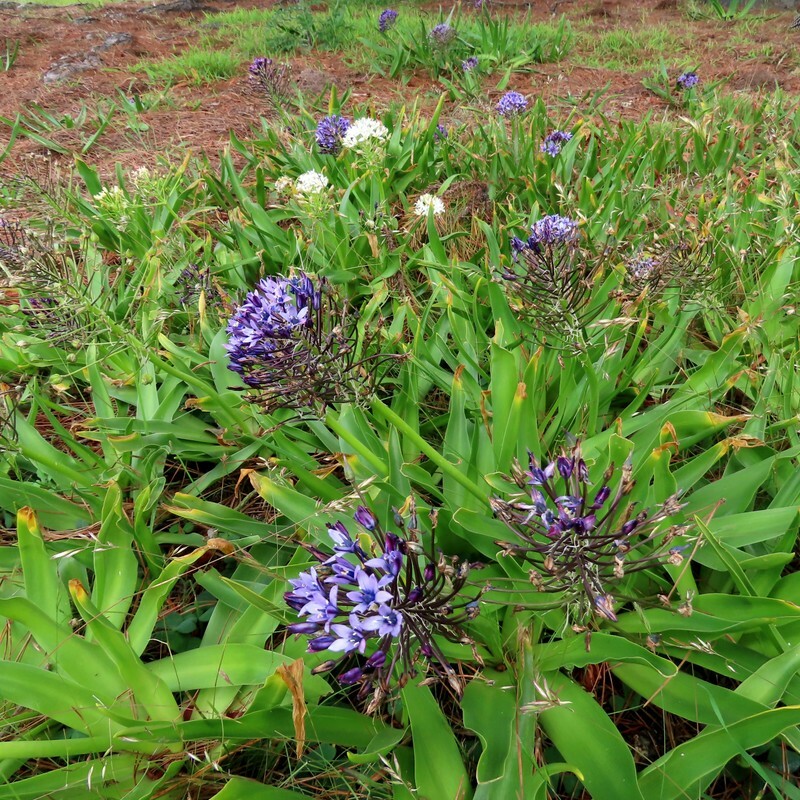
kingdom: Plantae
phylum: Tracheophyta
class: Liliopsida
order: Asparagales
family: Asparagaceae
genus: Scilla
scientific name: Scilla peruviana
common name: Portuguese squill
